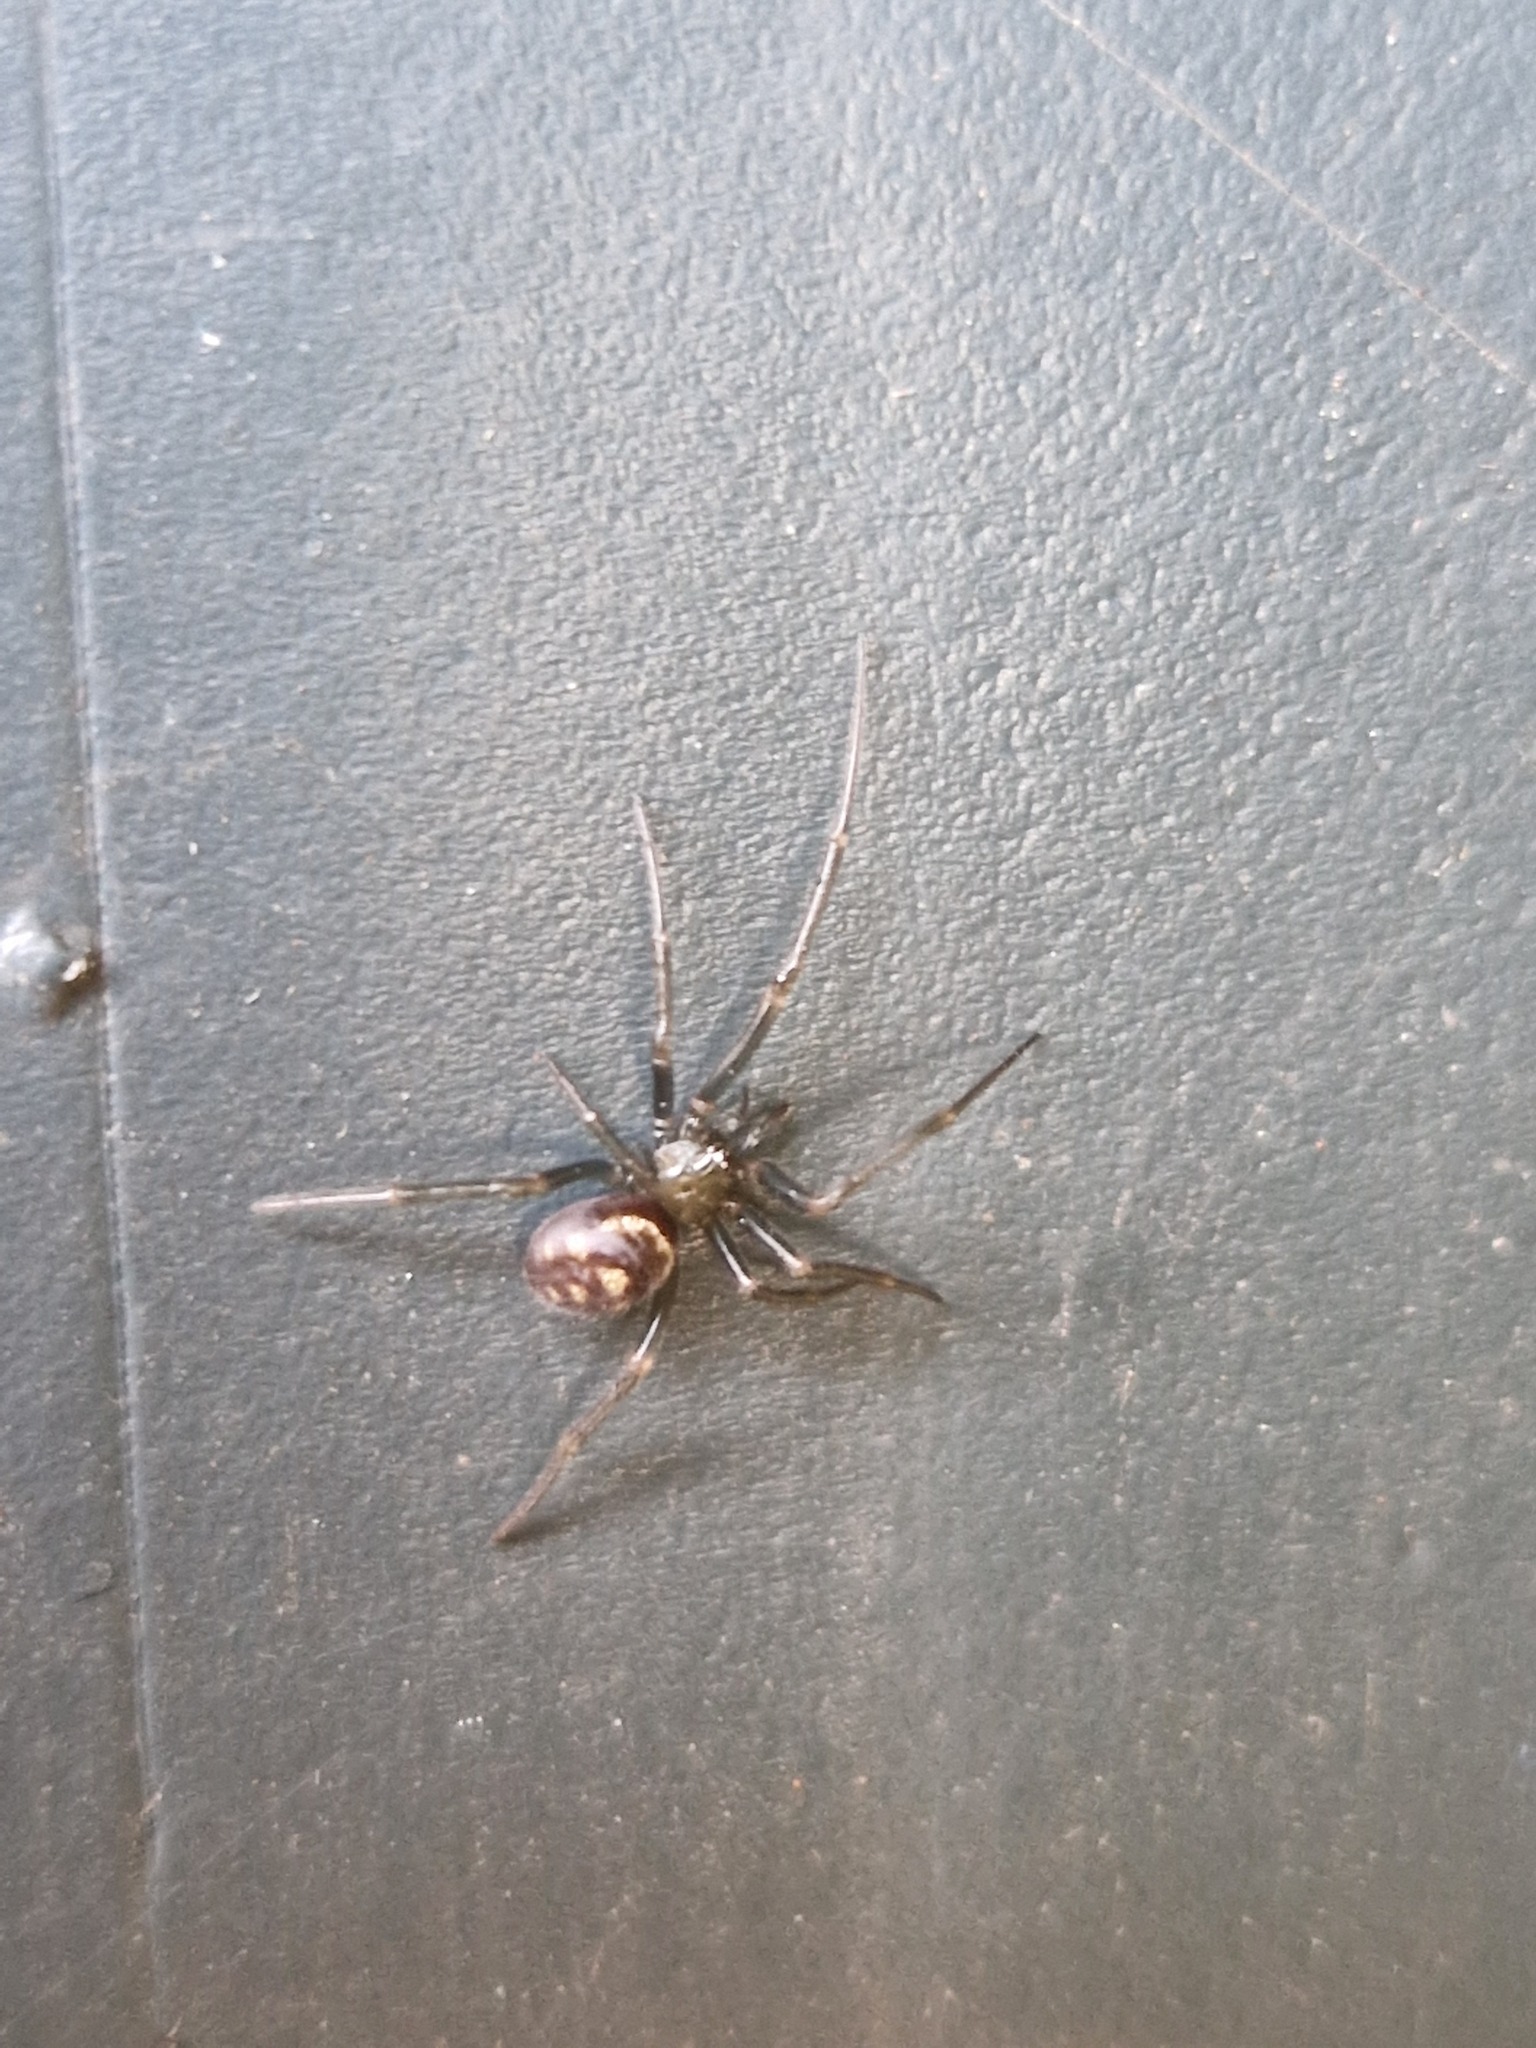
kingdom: Animalia
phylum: Arthropoda
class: Arachnida
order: Araneae
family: Theridiidae
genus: Steatoda
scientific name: Steatoda grossa
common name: False black widow
